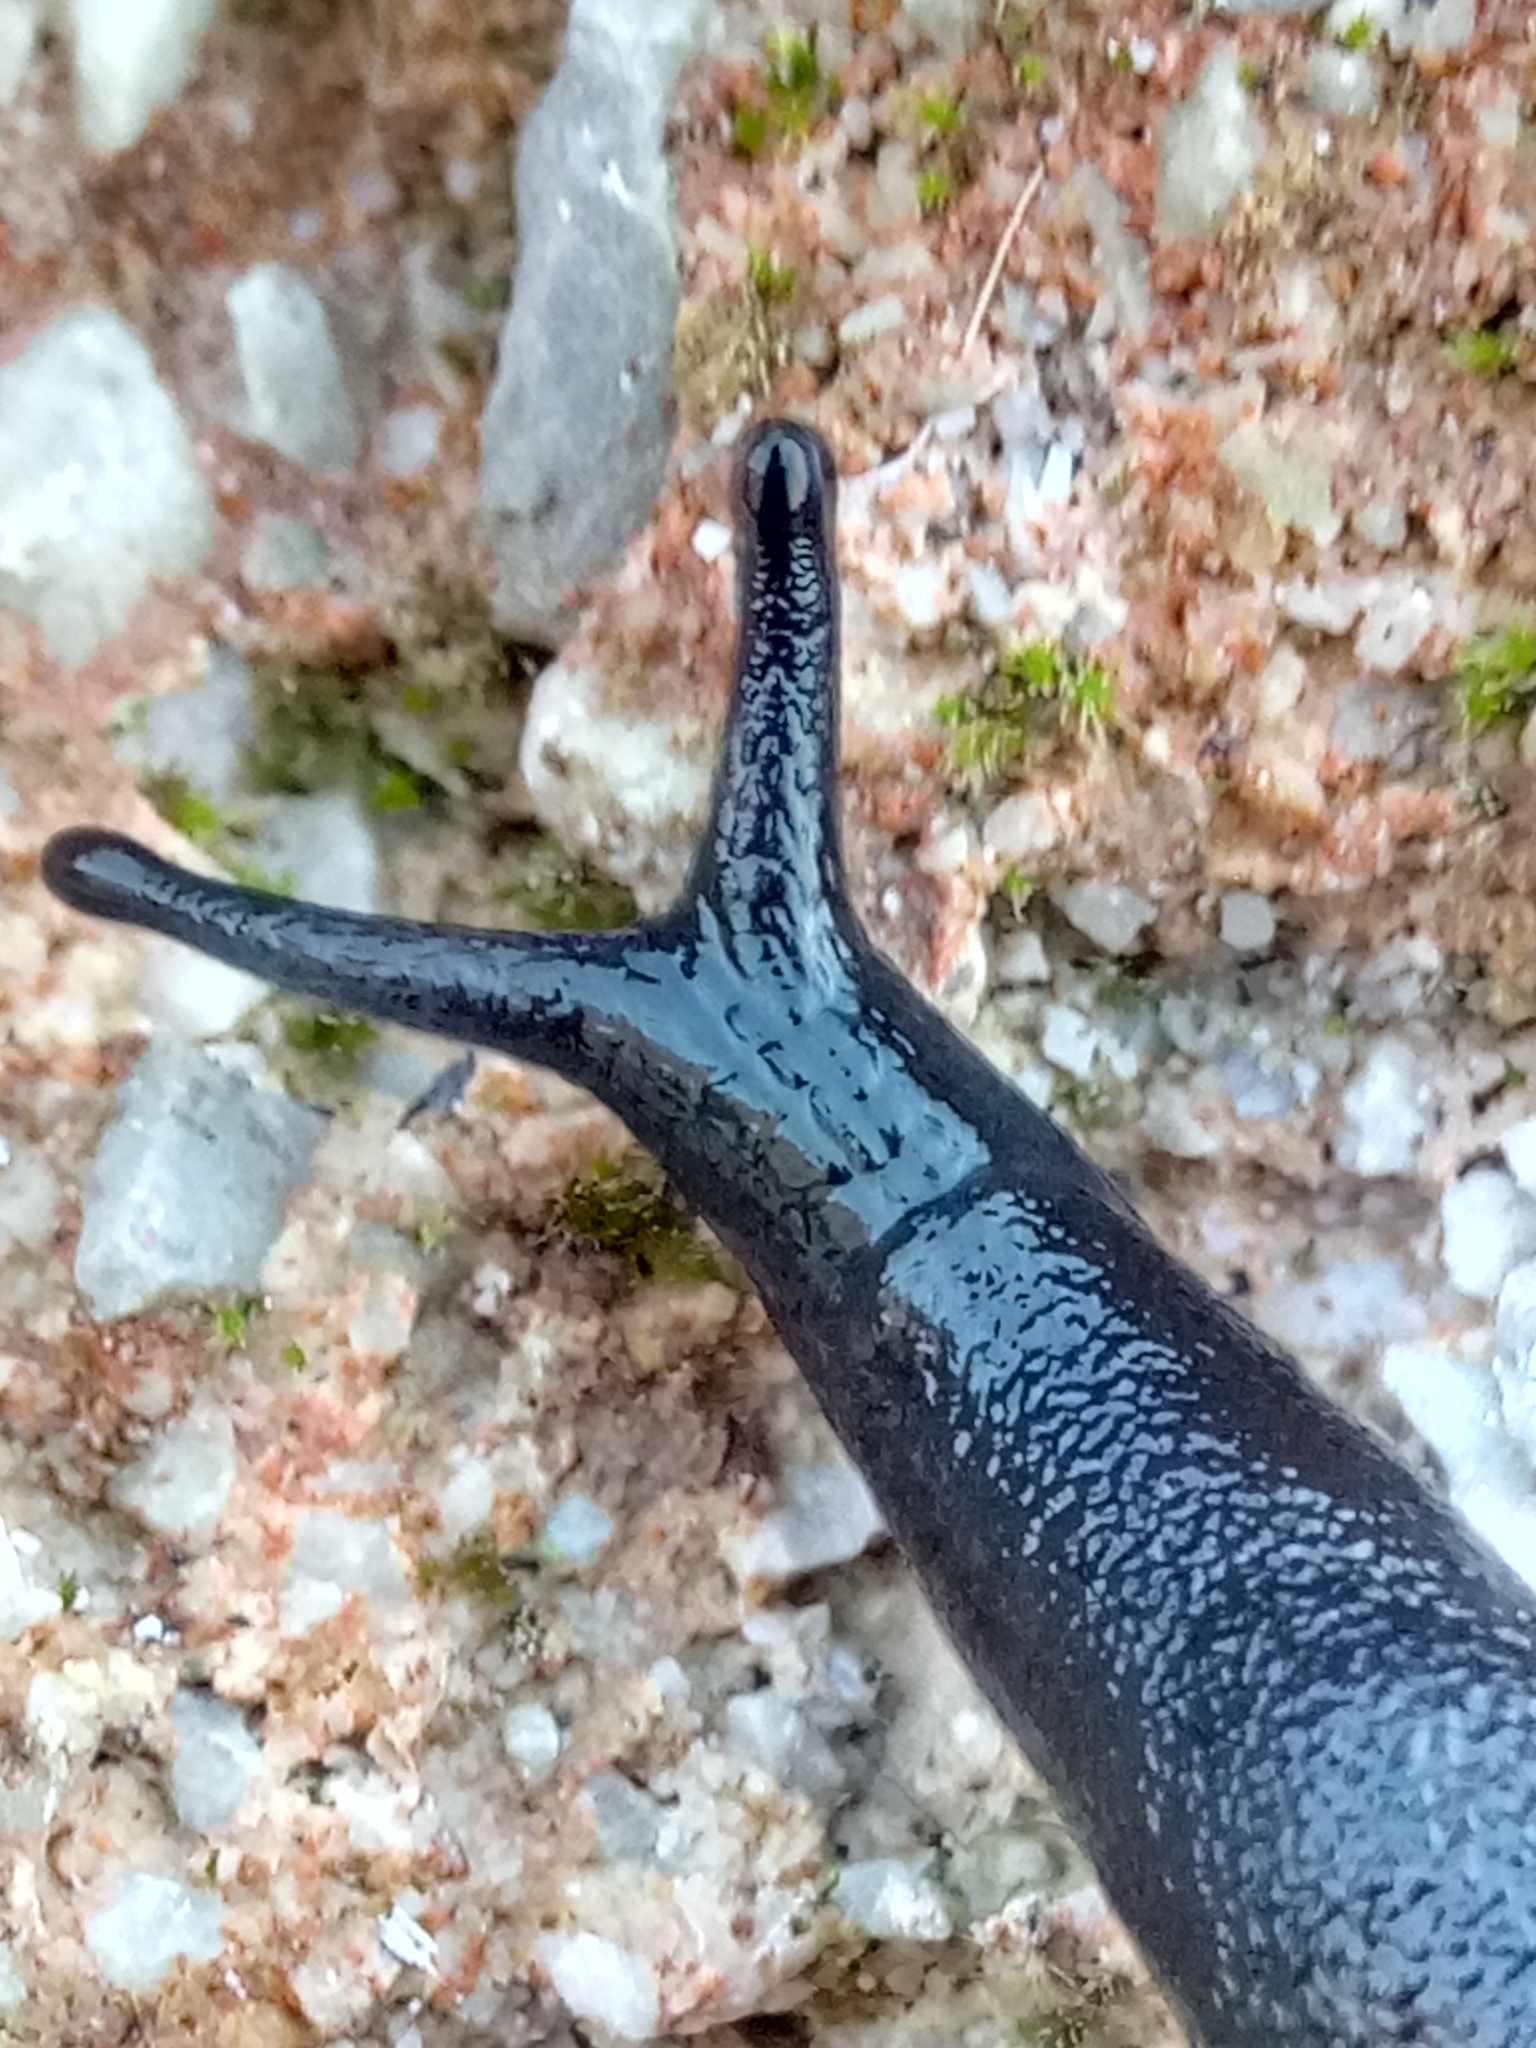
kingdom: Animalia
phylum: Mollusca
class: Gastropoda
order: Stylommatophora
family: Milacidae
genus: Milax
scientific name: Milax gagates
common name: Greenhouse slug
